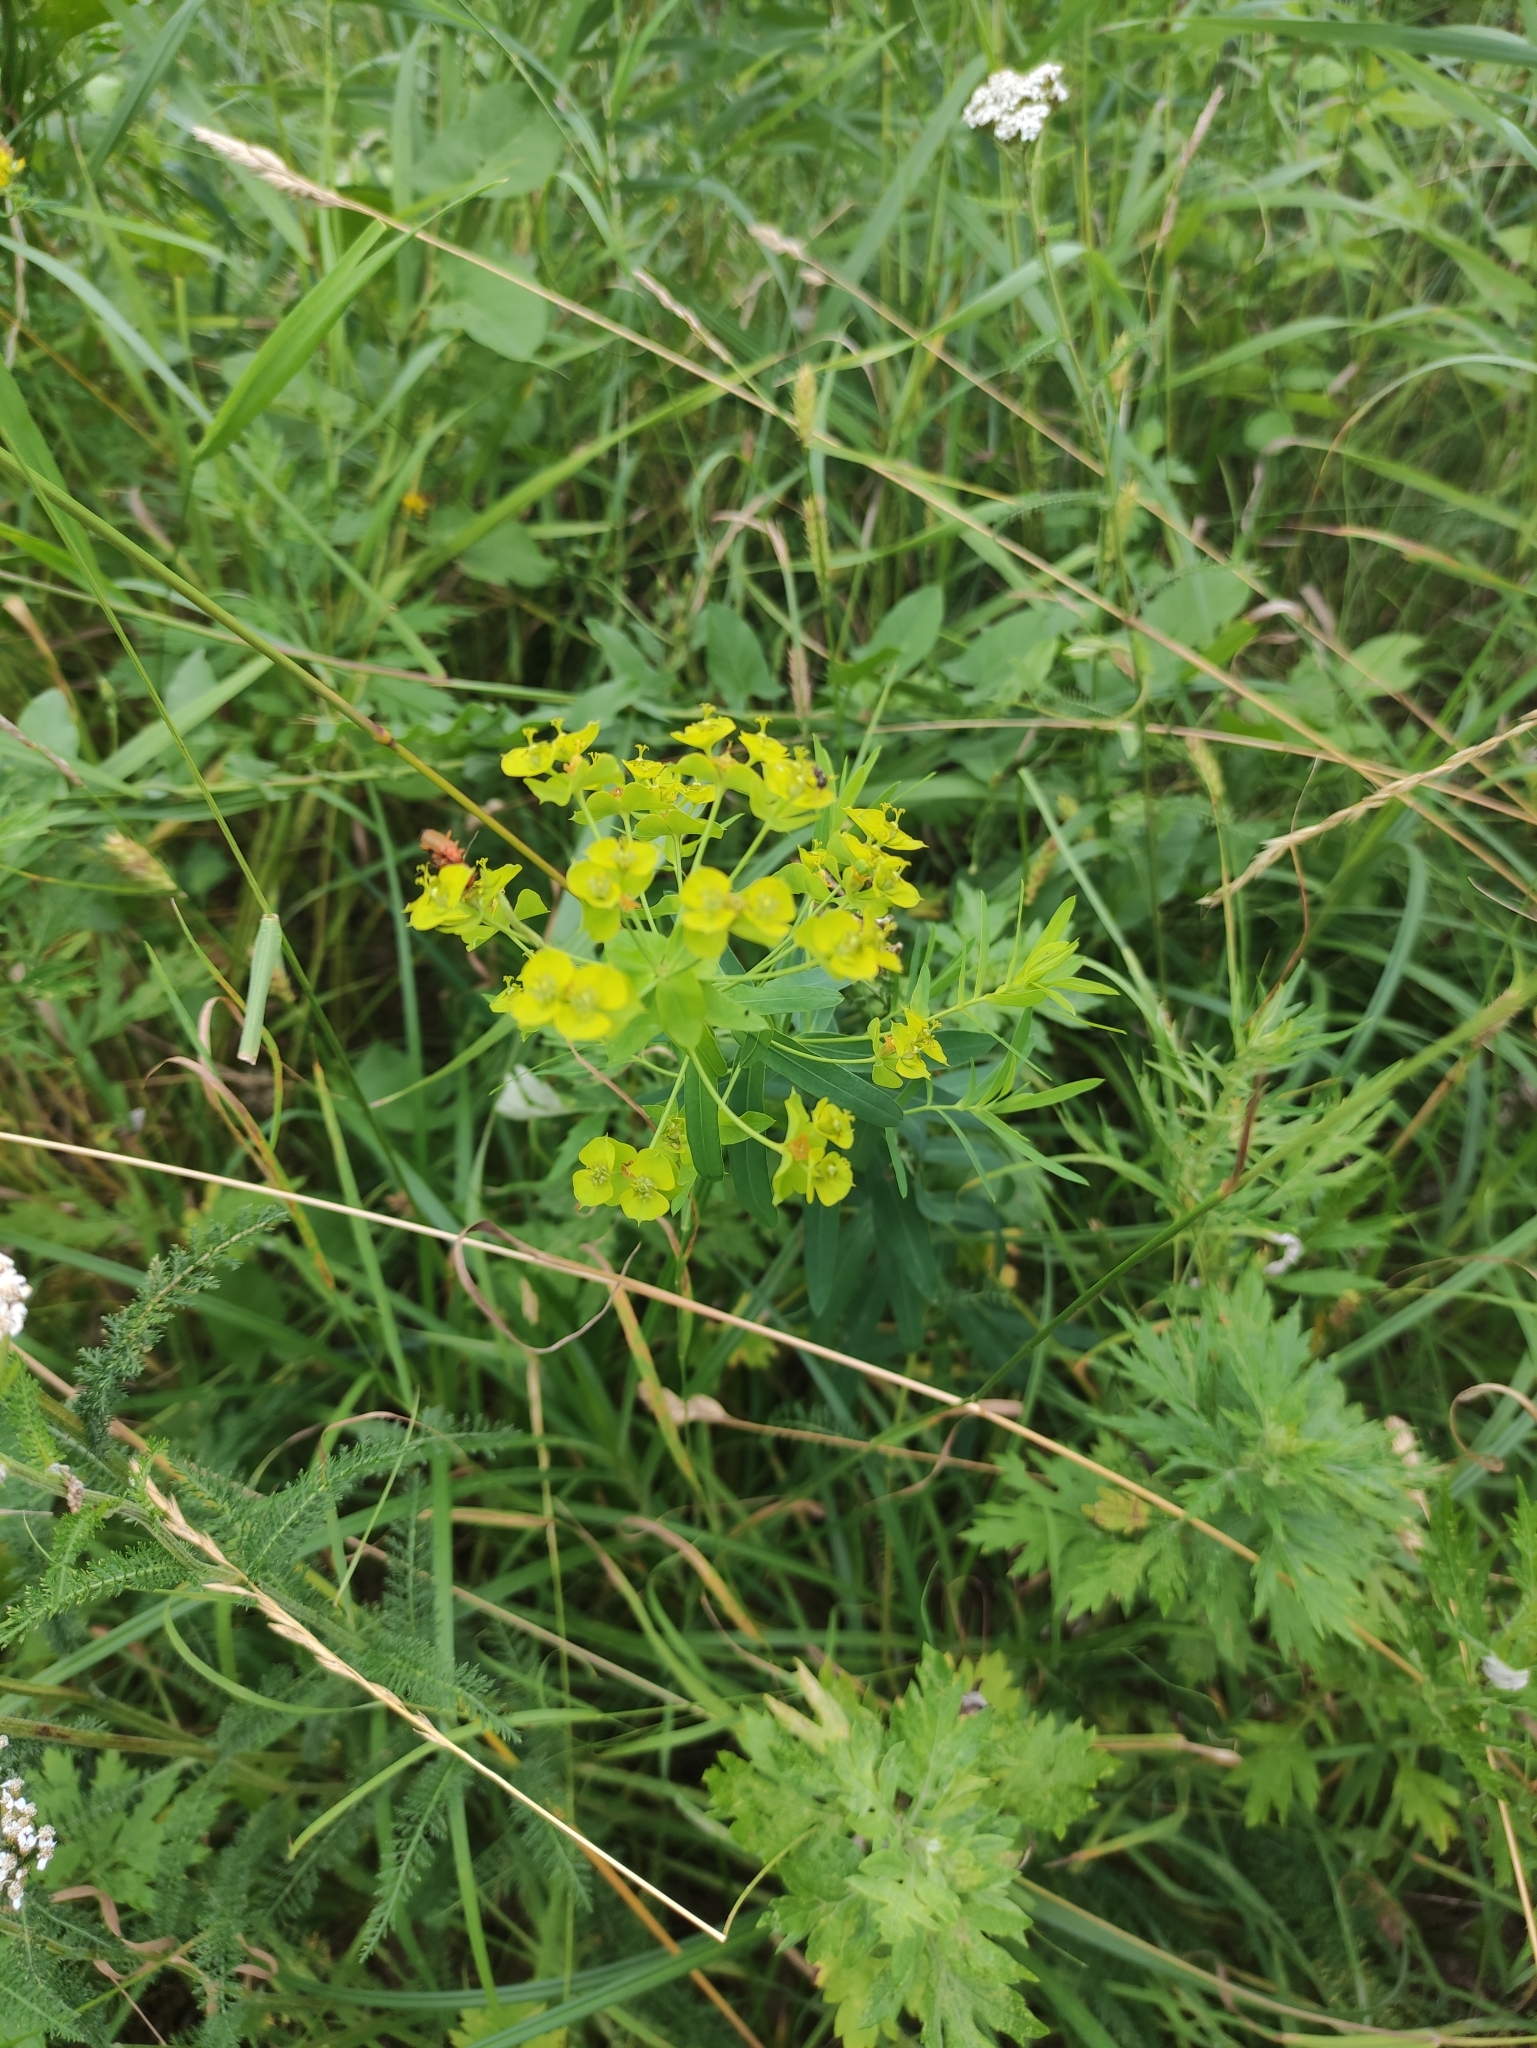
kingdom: Plantae
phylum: Tracheophyta
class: Magnoliopsida
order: Malpighiales
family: Euphorbiaceae
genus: Euphorbia
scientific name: Euphorbia virgata
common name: Leafy spurge
